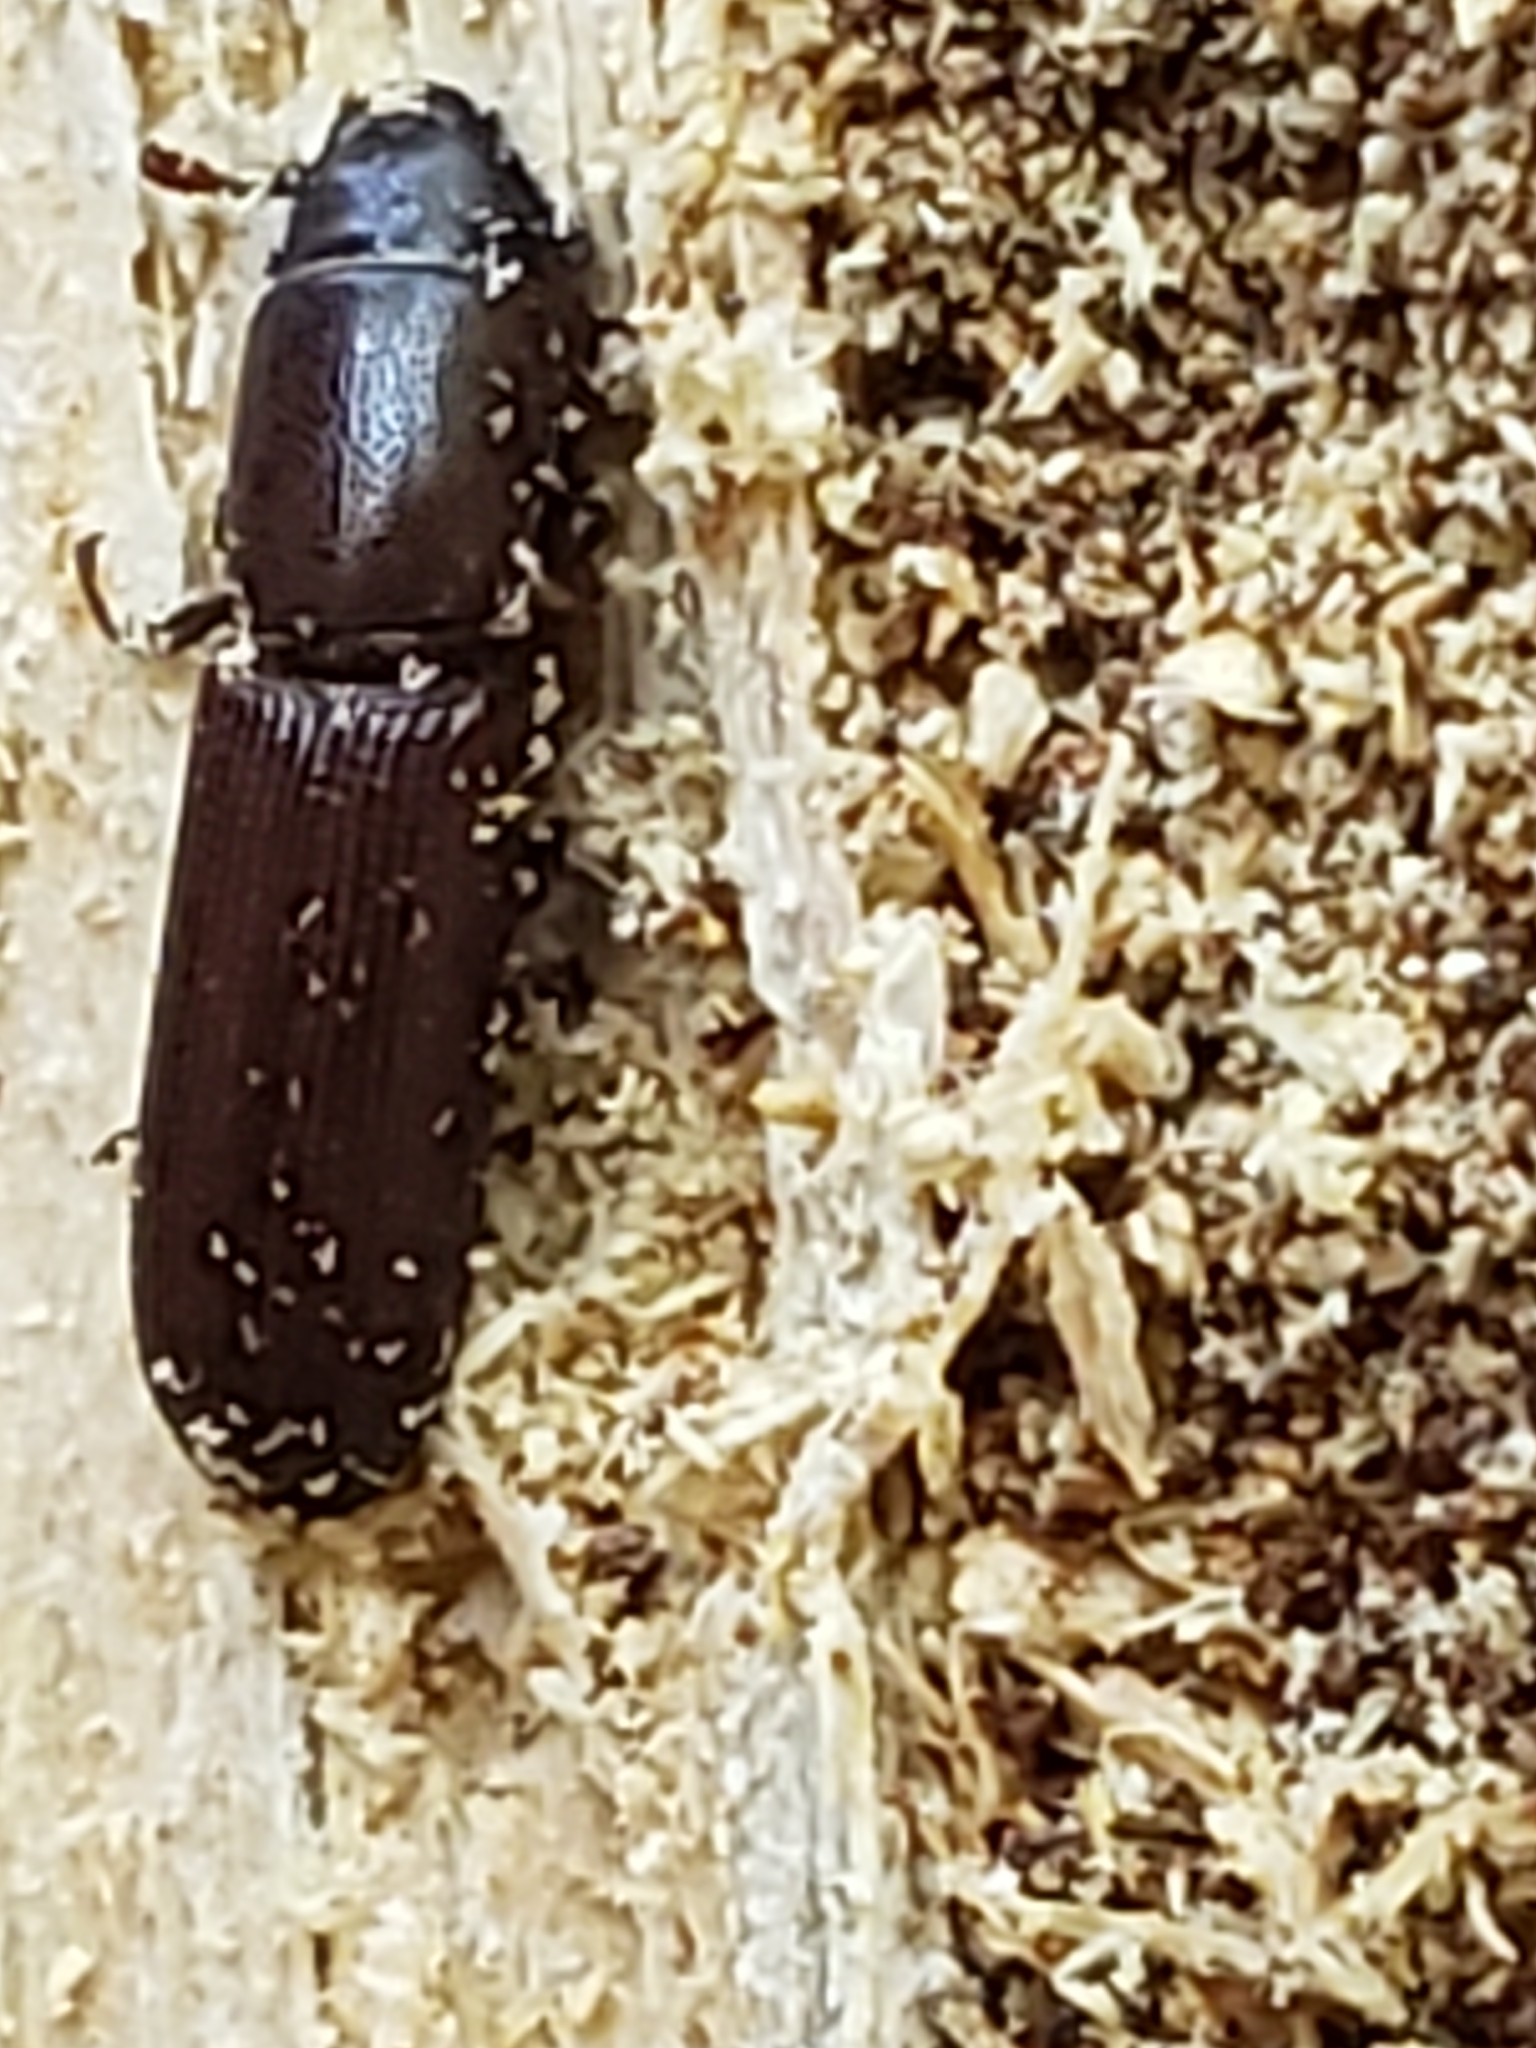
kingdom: Animalia
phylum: Arthropoda
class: Insecta
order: Coleoptera
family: Trogossitidae
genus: Airora
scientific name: Airora cylindrica
